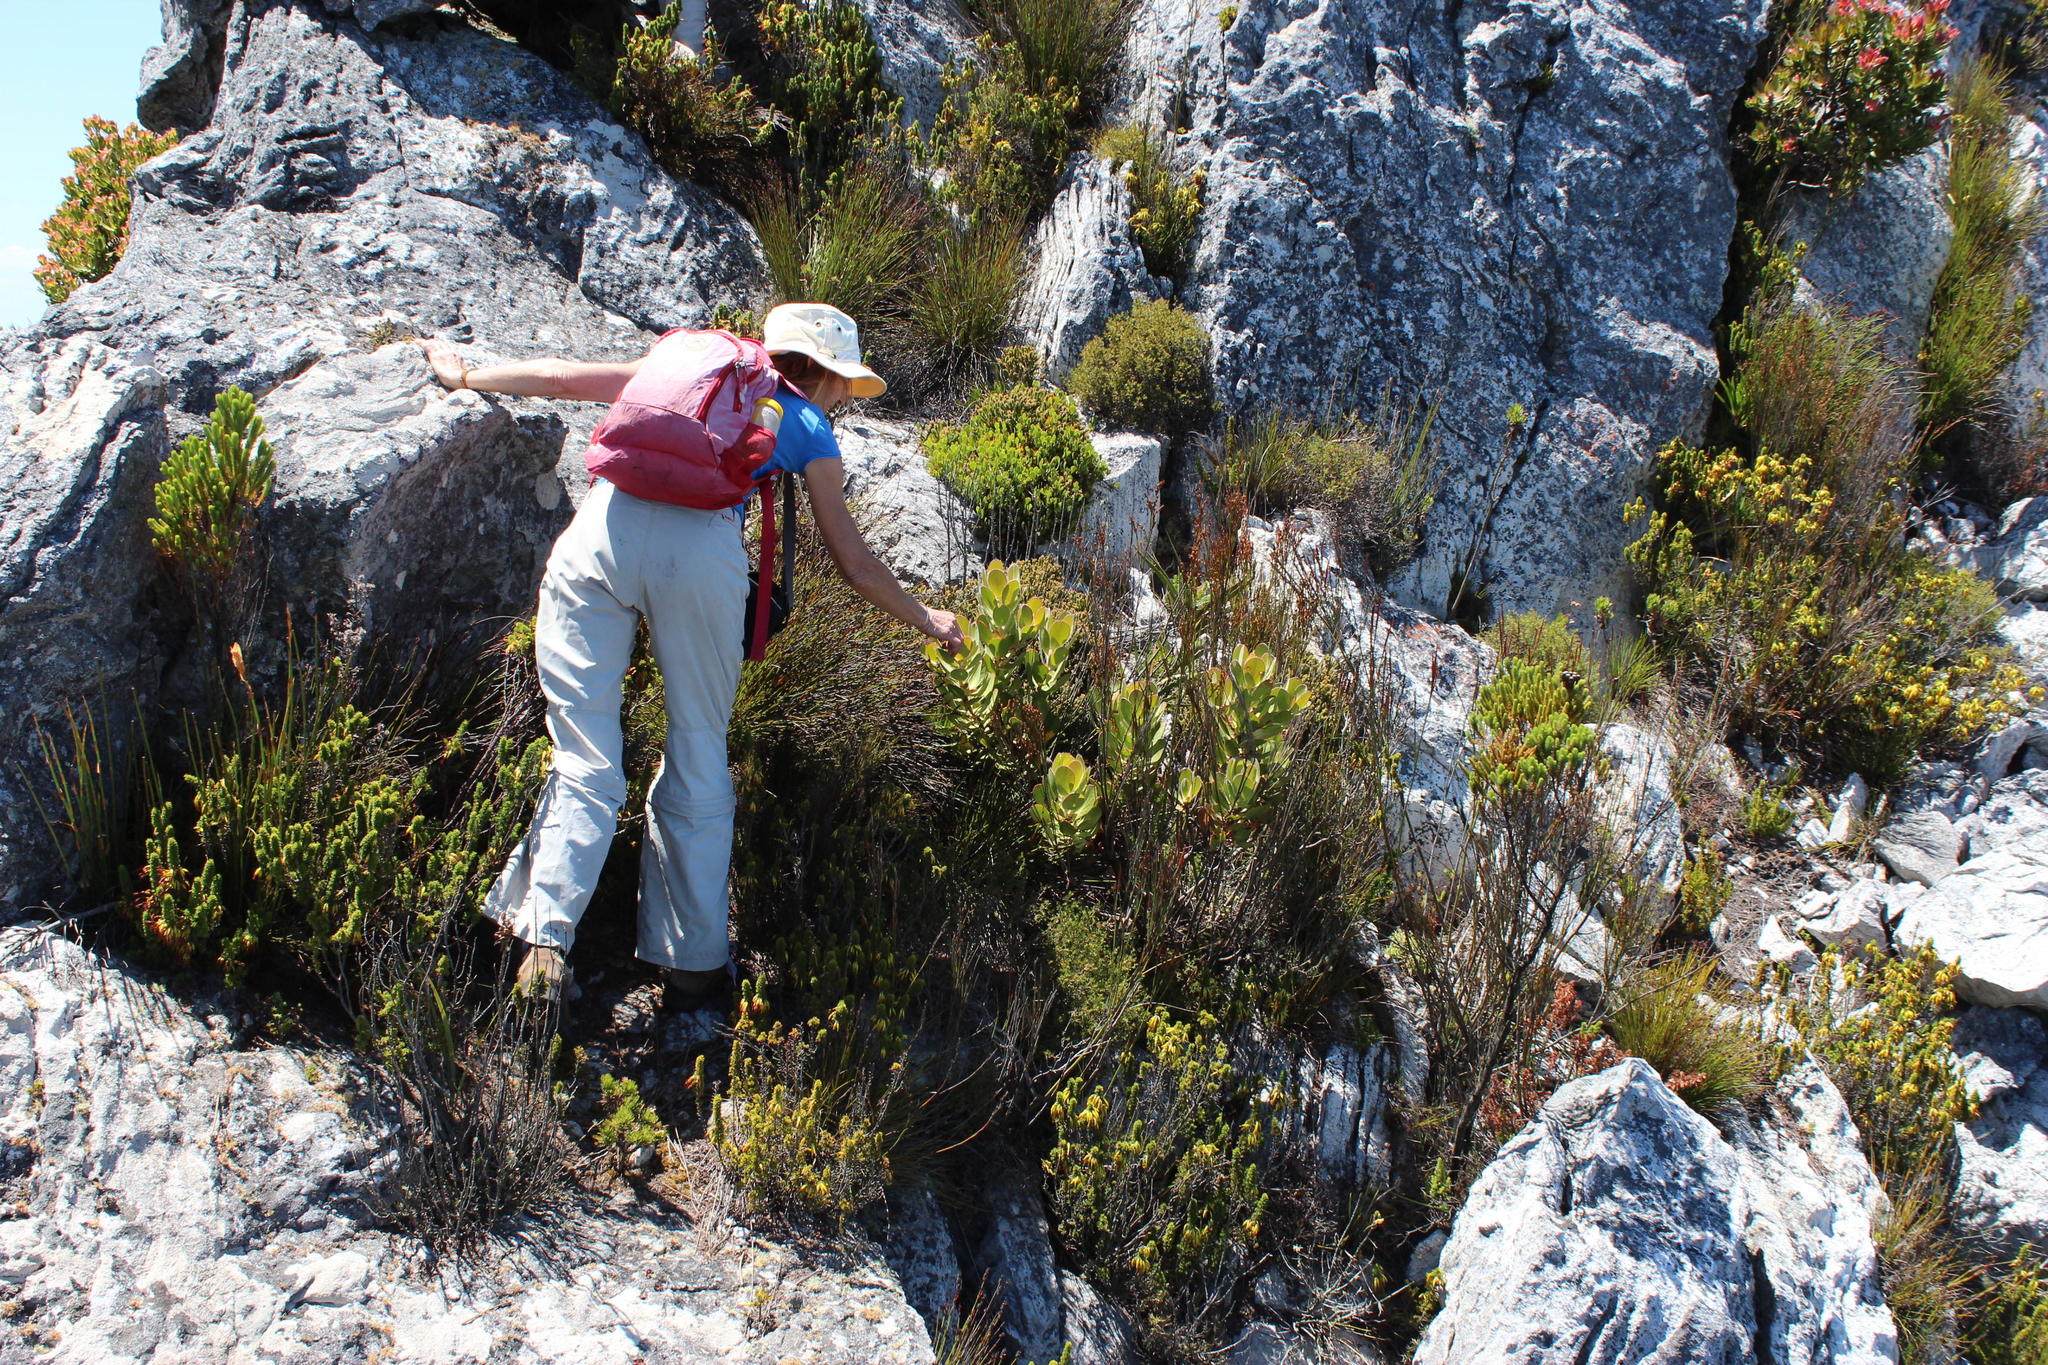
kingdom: Plantae
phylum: Tracheophyta
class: Magnoliopsida
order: Proteales
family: Proteaceae
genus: Protea
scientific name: Protea stokoei
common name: Pink sugarbush
